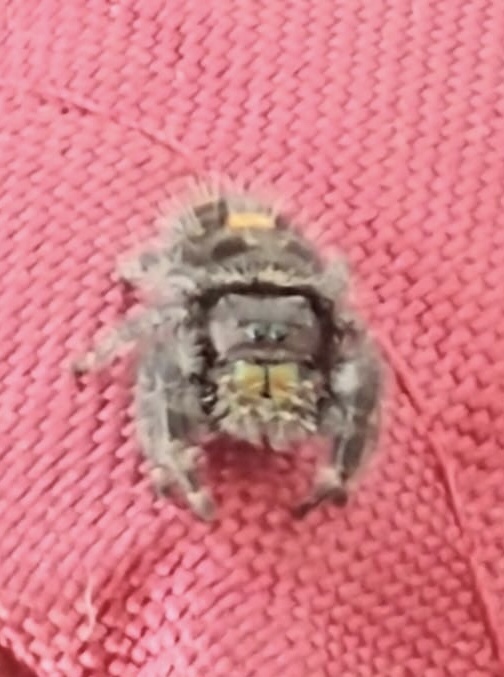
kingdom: Animalia
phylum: Arthropoda
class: Arachnida
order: Araneae
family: Salticidae
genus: Phidippus
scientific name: Phidippus audax
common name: Bold jumper
